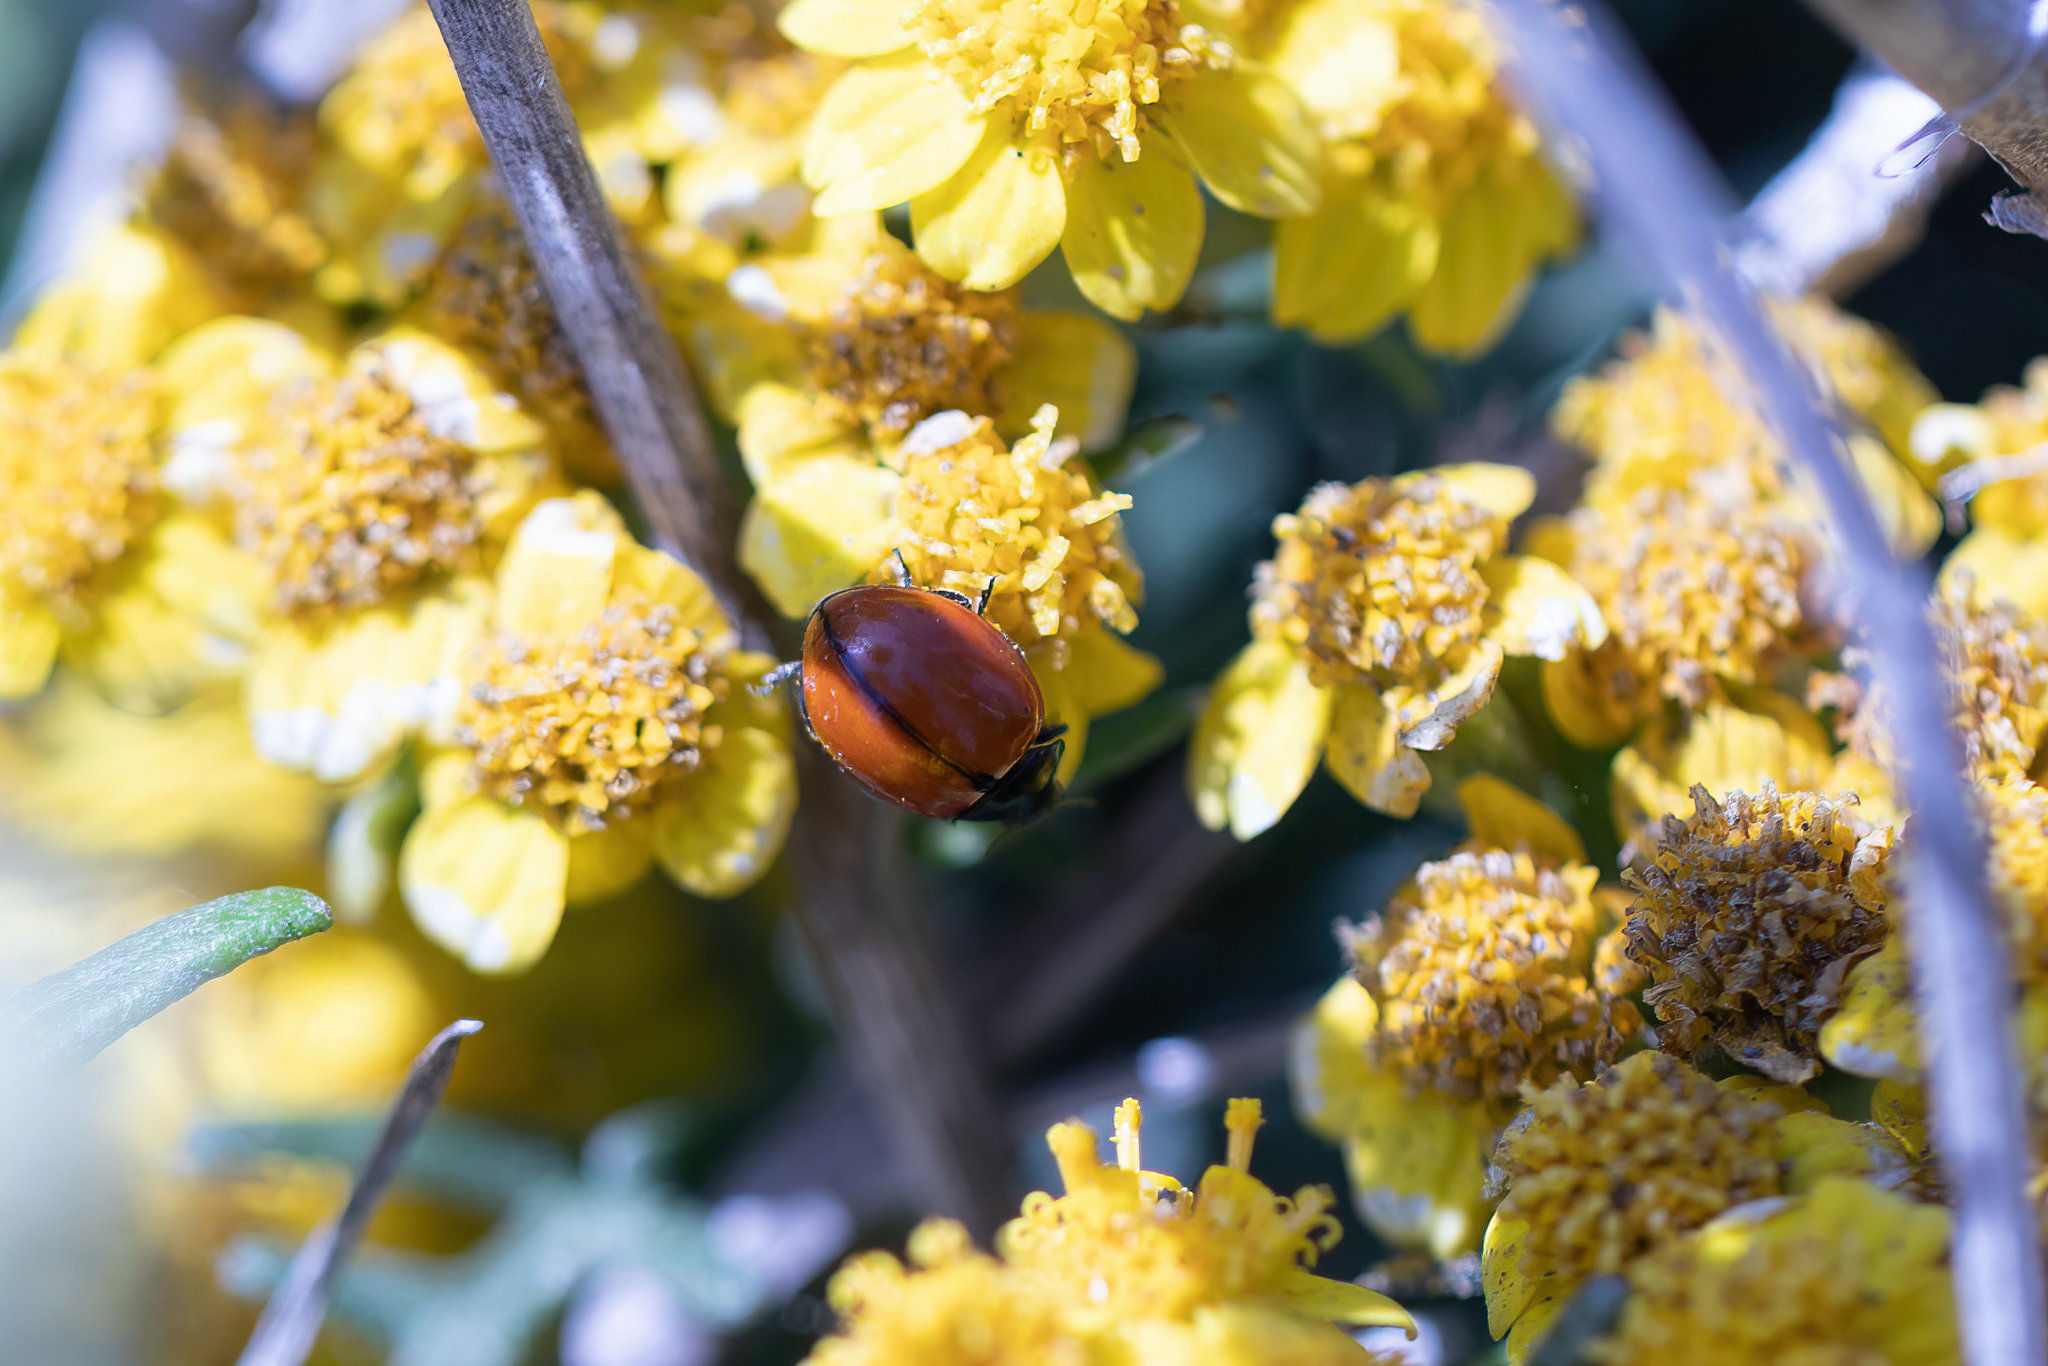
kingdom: Animalia
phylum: Arthropoda
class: Insecta
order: Coleoptera
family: Coccinellidae
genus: Coccinella
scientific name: Coccinella californica
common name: Lady beetle
